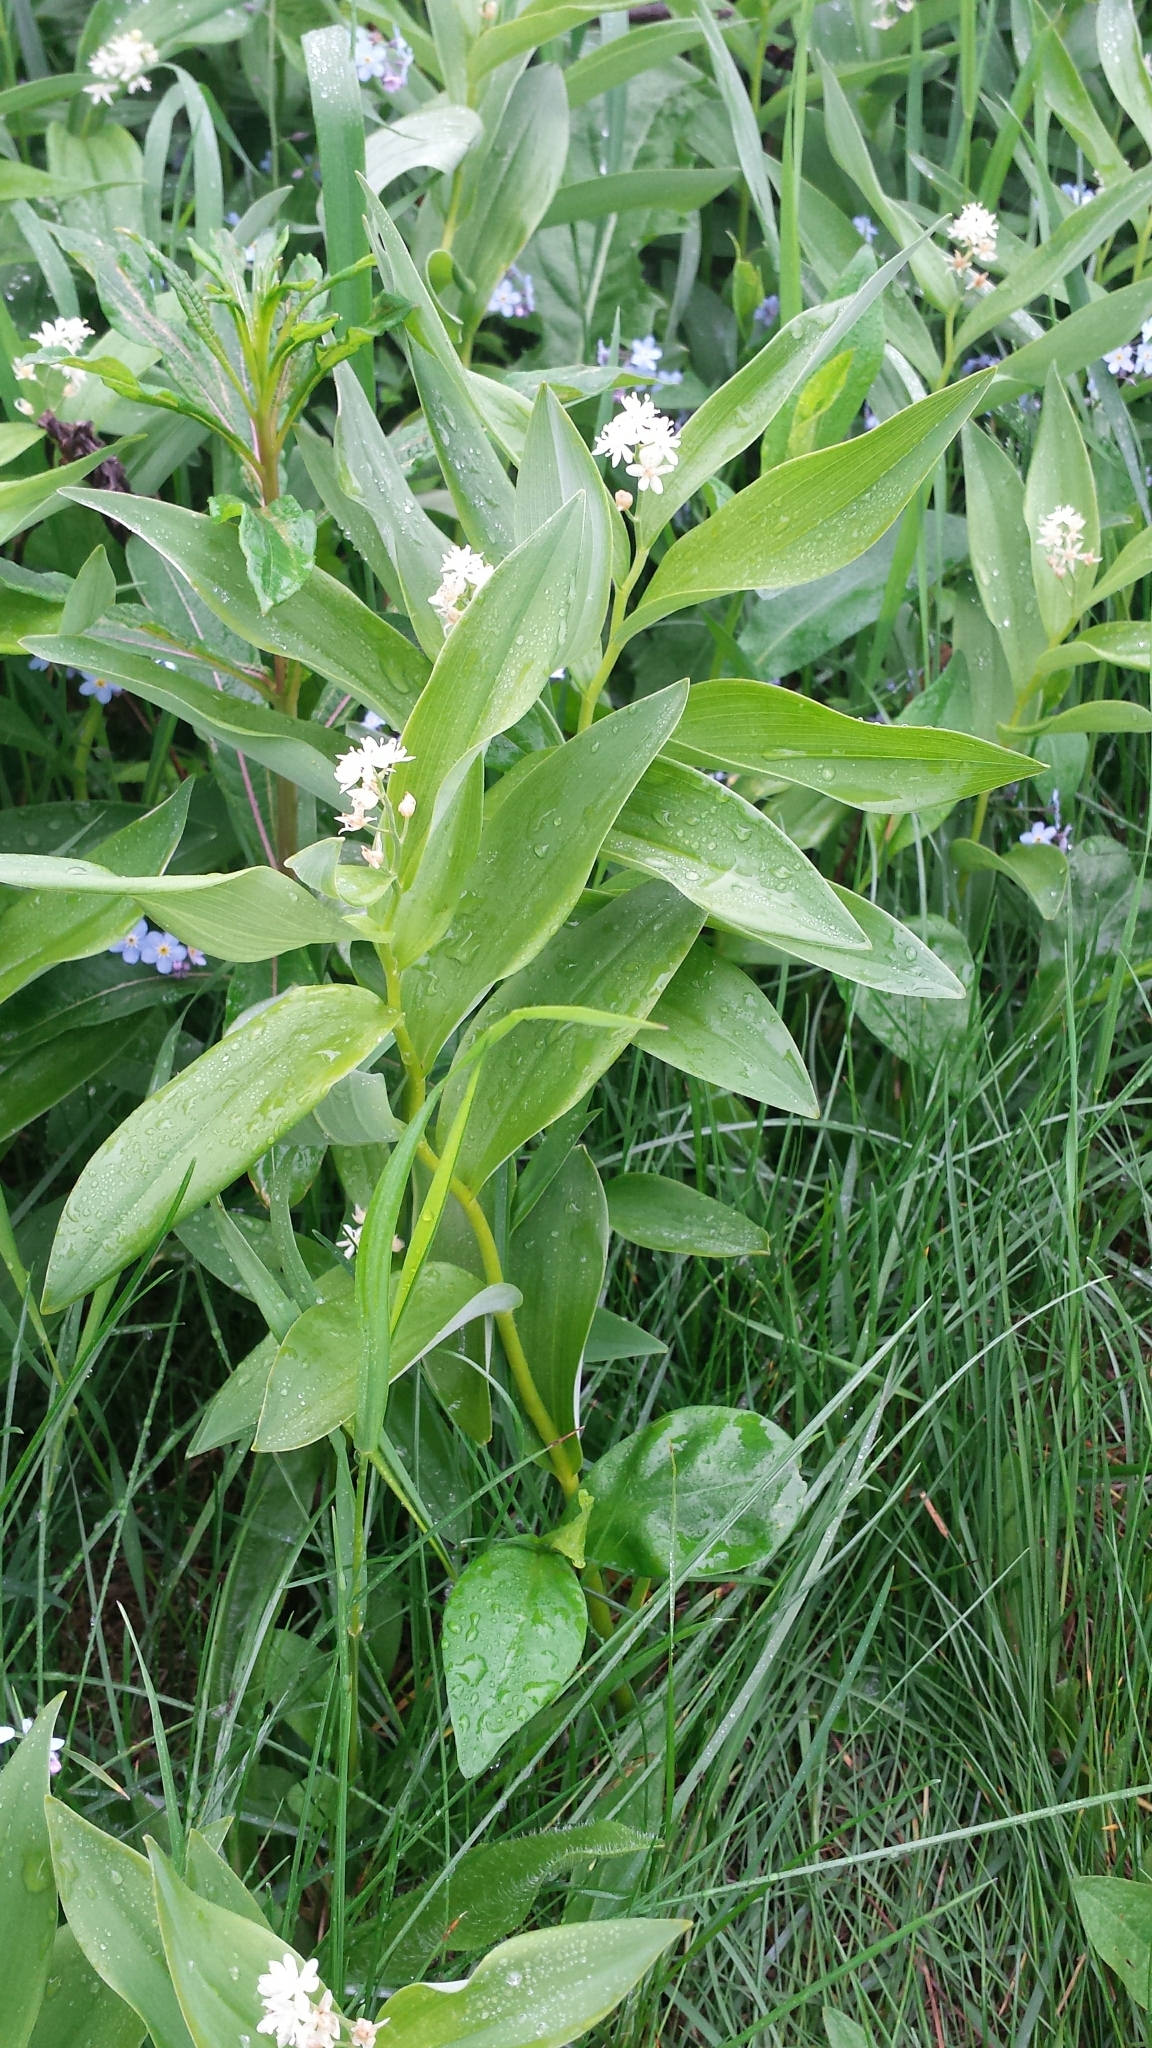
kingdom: Plantae
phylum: Tracheophyta
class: Liliopsida
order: Asparagales
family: Asparagaceae
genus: Maianthemum
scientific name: Maianthemum stellatum
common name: Little false solomon's seal
